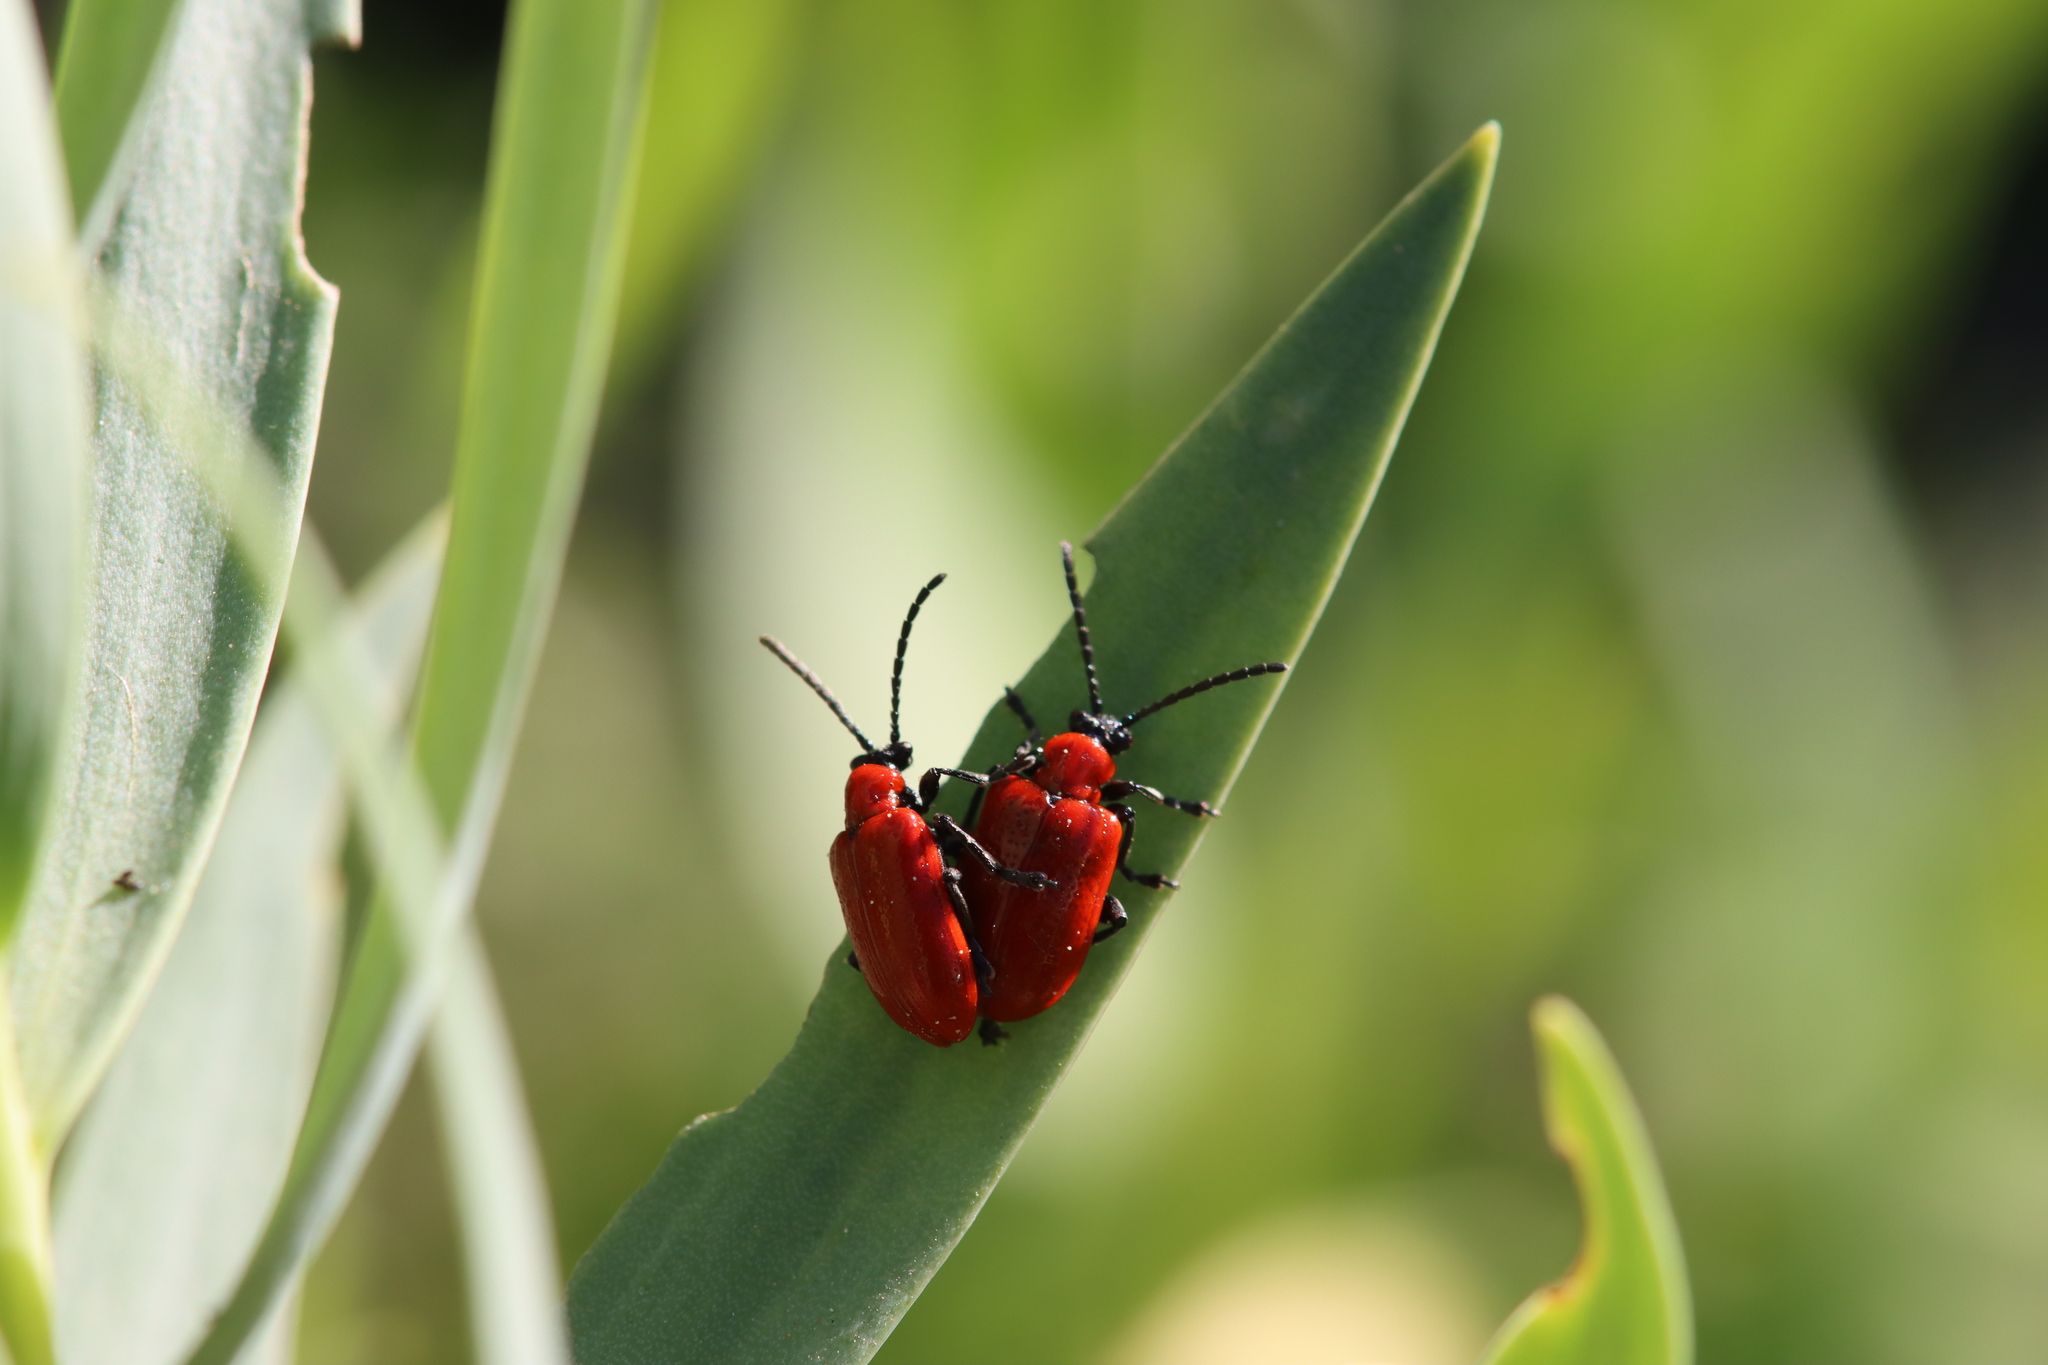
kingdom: Animalia
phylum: Arthropoda
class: Insecta
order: Coleoptera
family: Chrysomelidae
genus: Lilioceris
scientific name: Lilioceris lilii
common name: Lily beetle
